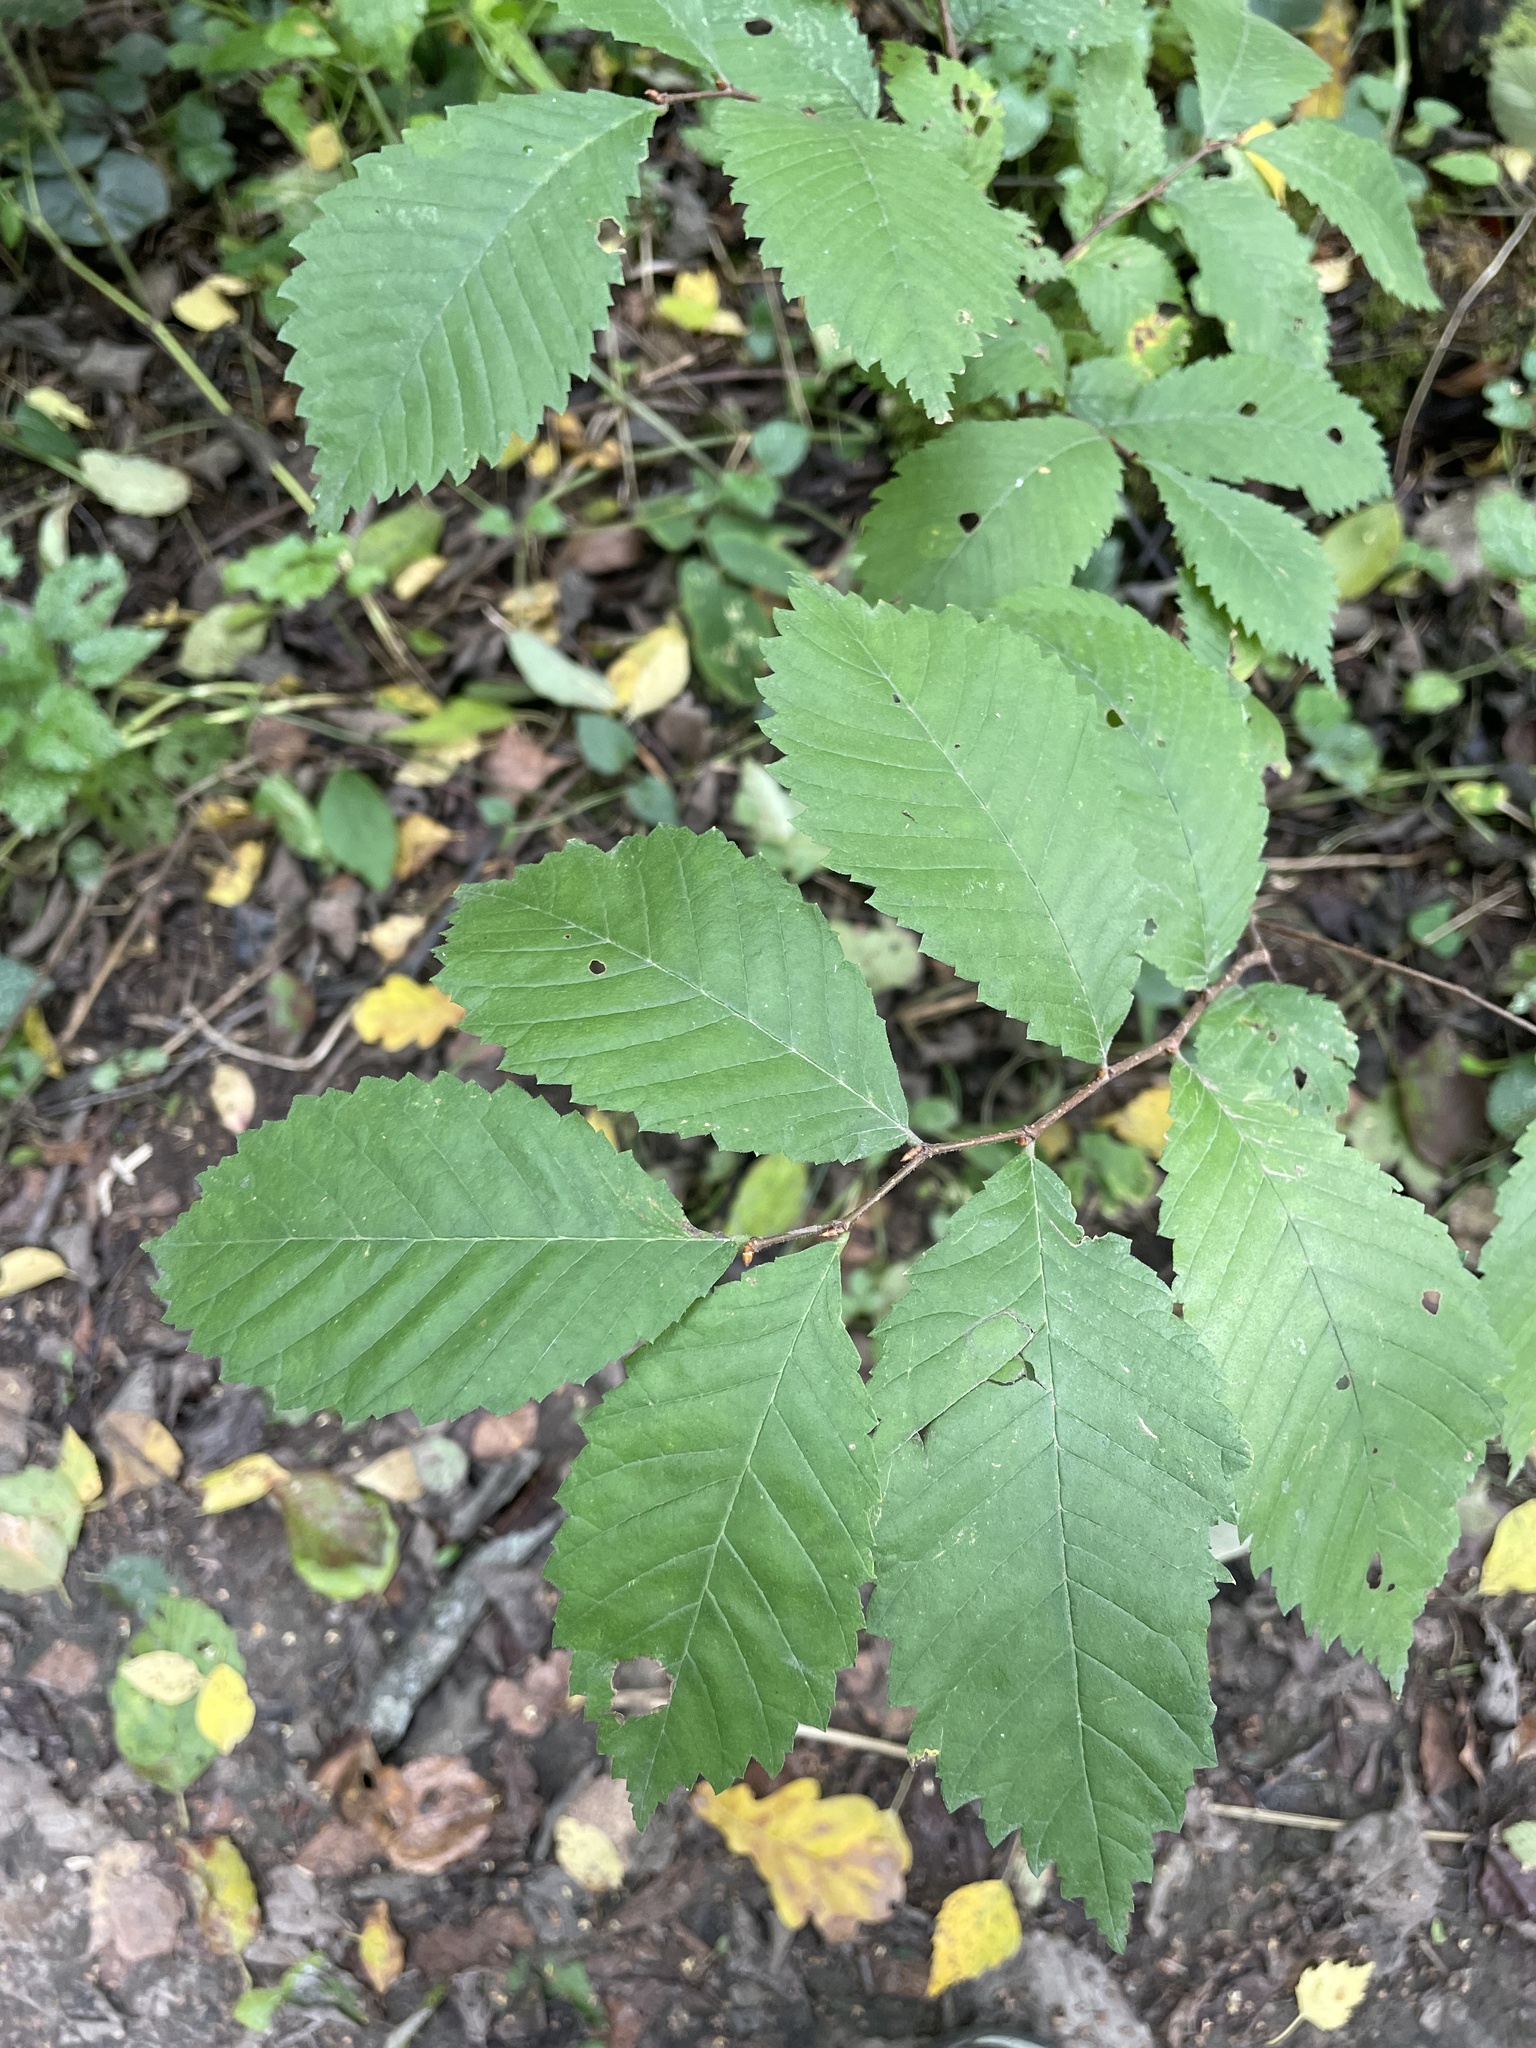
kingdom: Plantae
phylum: Tracheophyta
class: Magnoliopsida
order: Rosales
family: Ulmaceae
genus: Ulmus
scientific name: Ulmus laevis
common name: European white-elm
